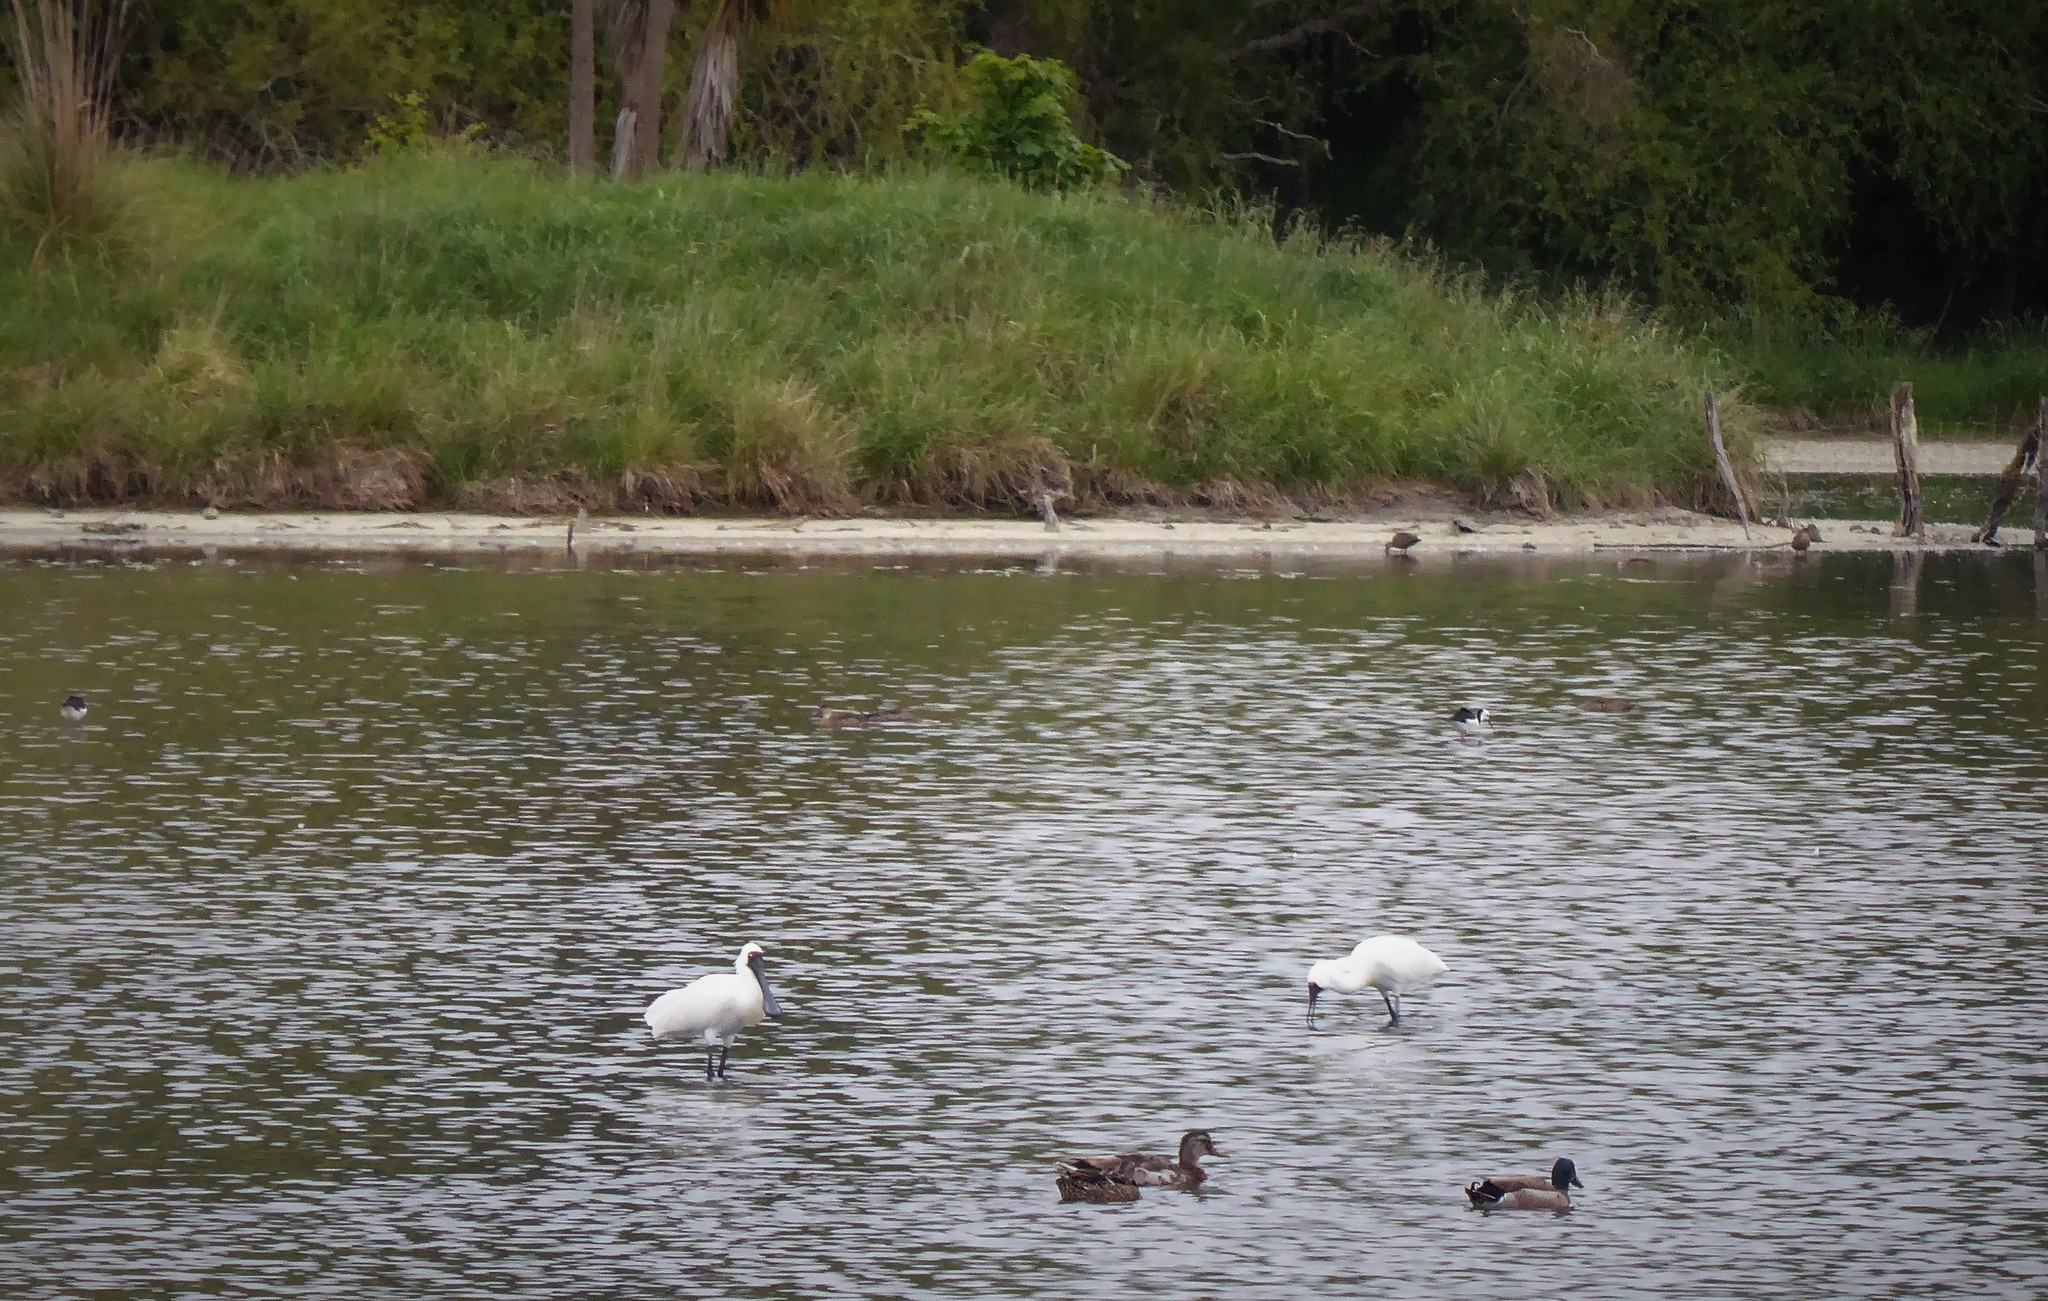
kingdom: Animalia
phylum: Chordata
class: Aves
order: Pelecaniformes
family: Threskiornithidae
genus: Platalea
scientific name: Platalea regia
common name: Royal spoonbill
